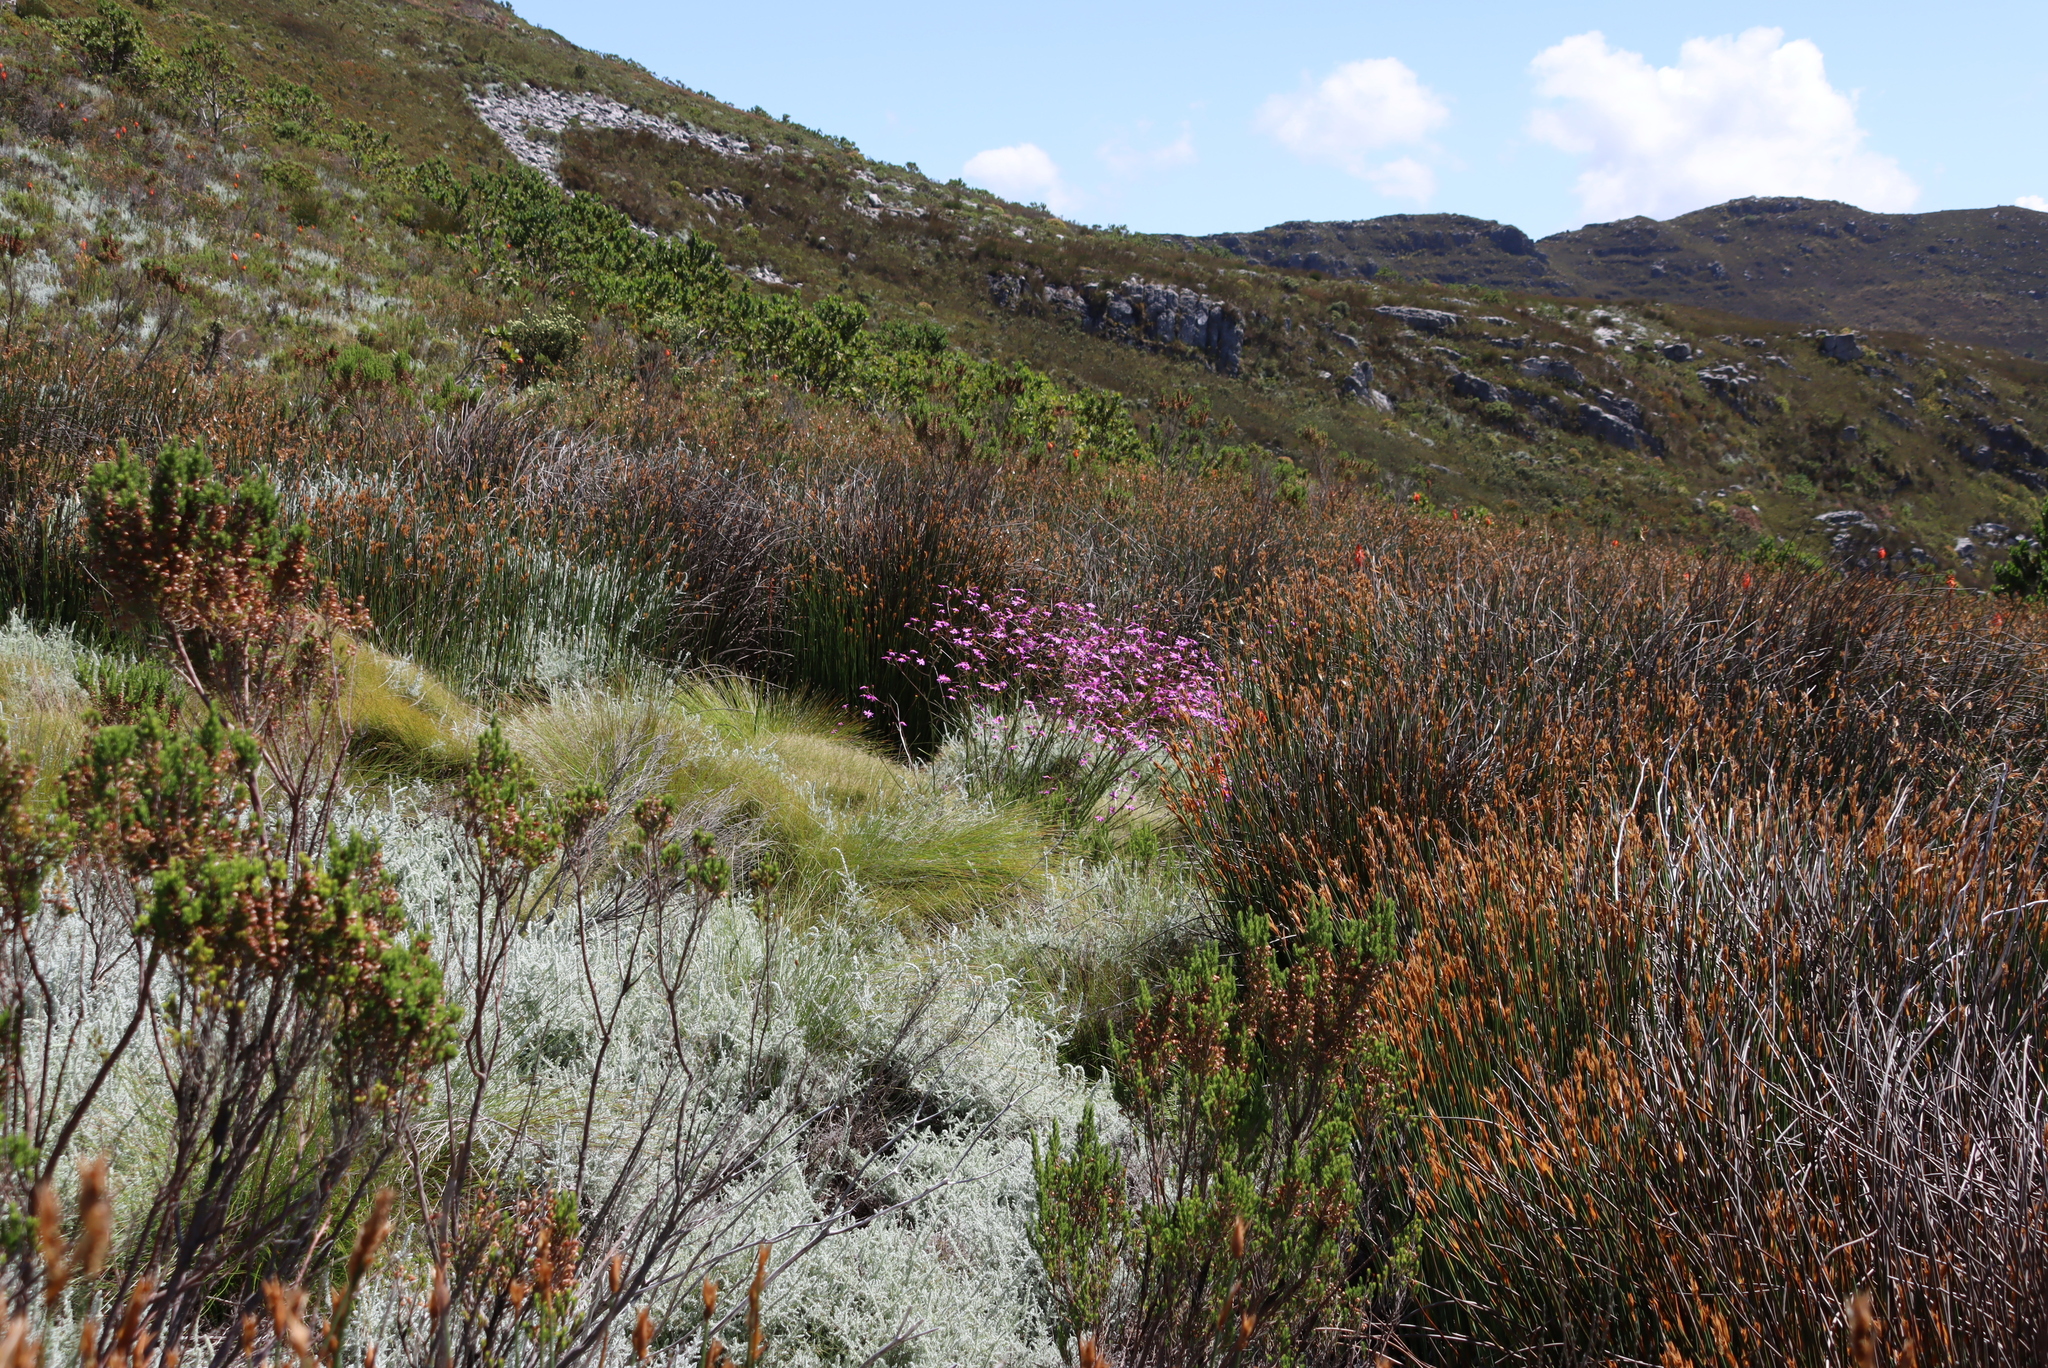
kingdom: Plantae
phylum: Tracheophyta
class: Magnoliopsida
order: Asterales
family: Asteraceae
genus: Seriphium
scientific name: Seriphium plumosum
